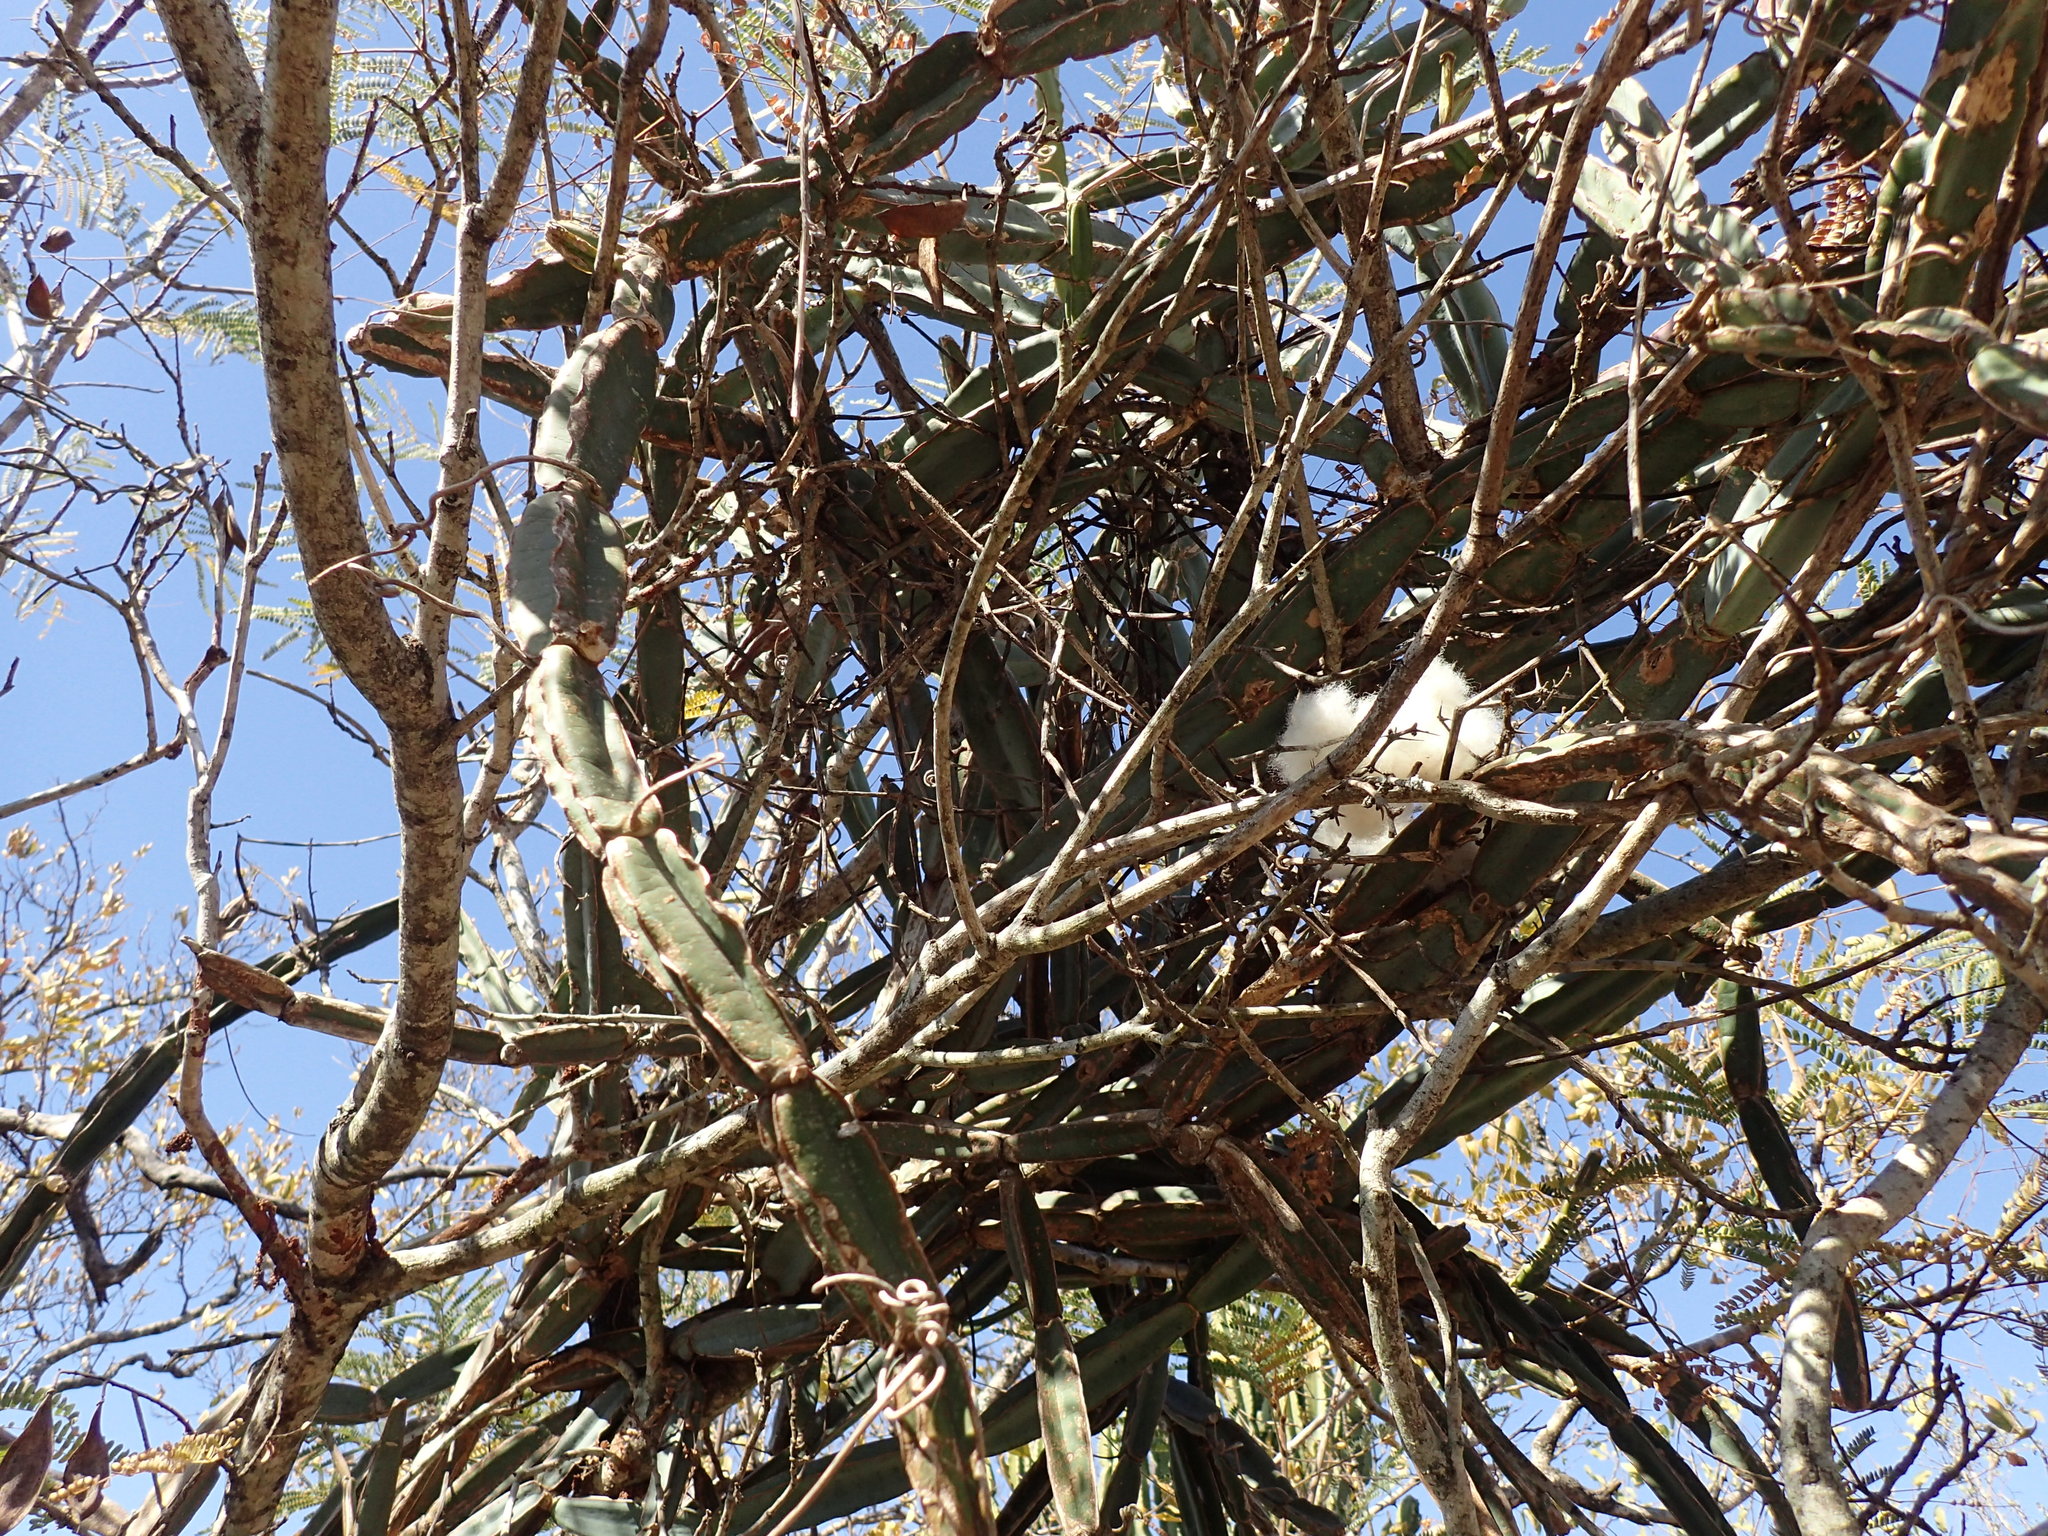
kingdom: Plantae
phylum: Tracheophyta
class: Magnoliopsida
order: Vitales
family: Vitaceae
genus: Cissus
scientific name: Cissus quadrangularis
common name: Veldt-grape
